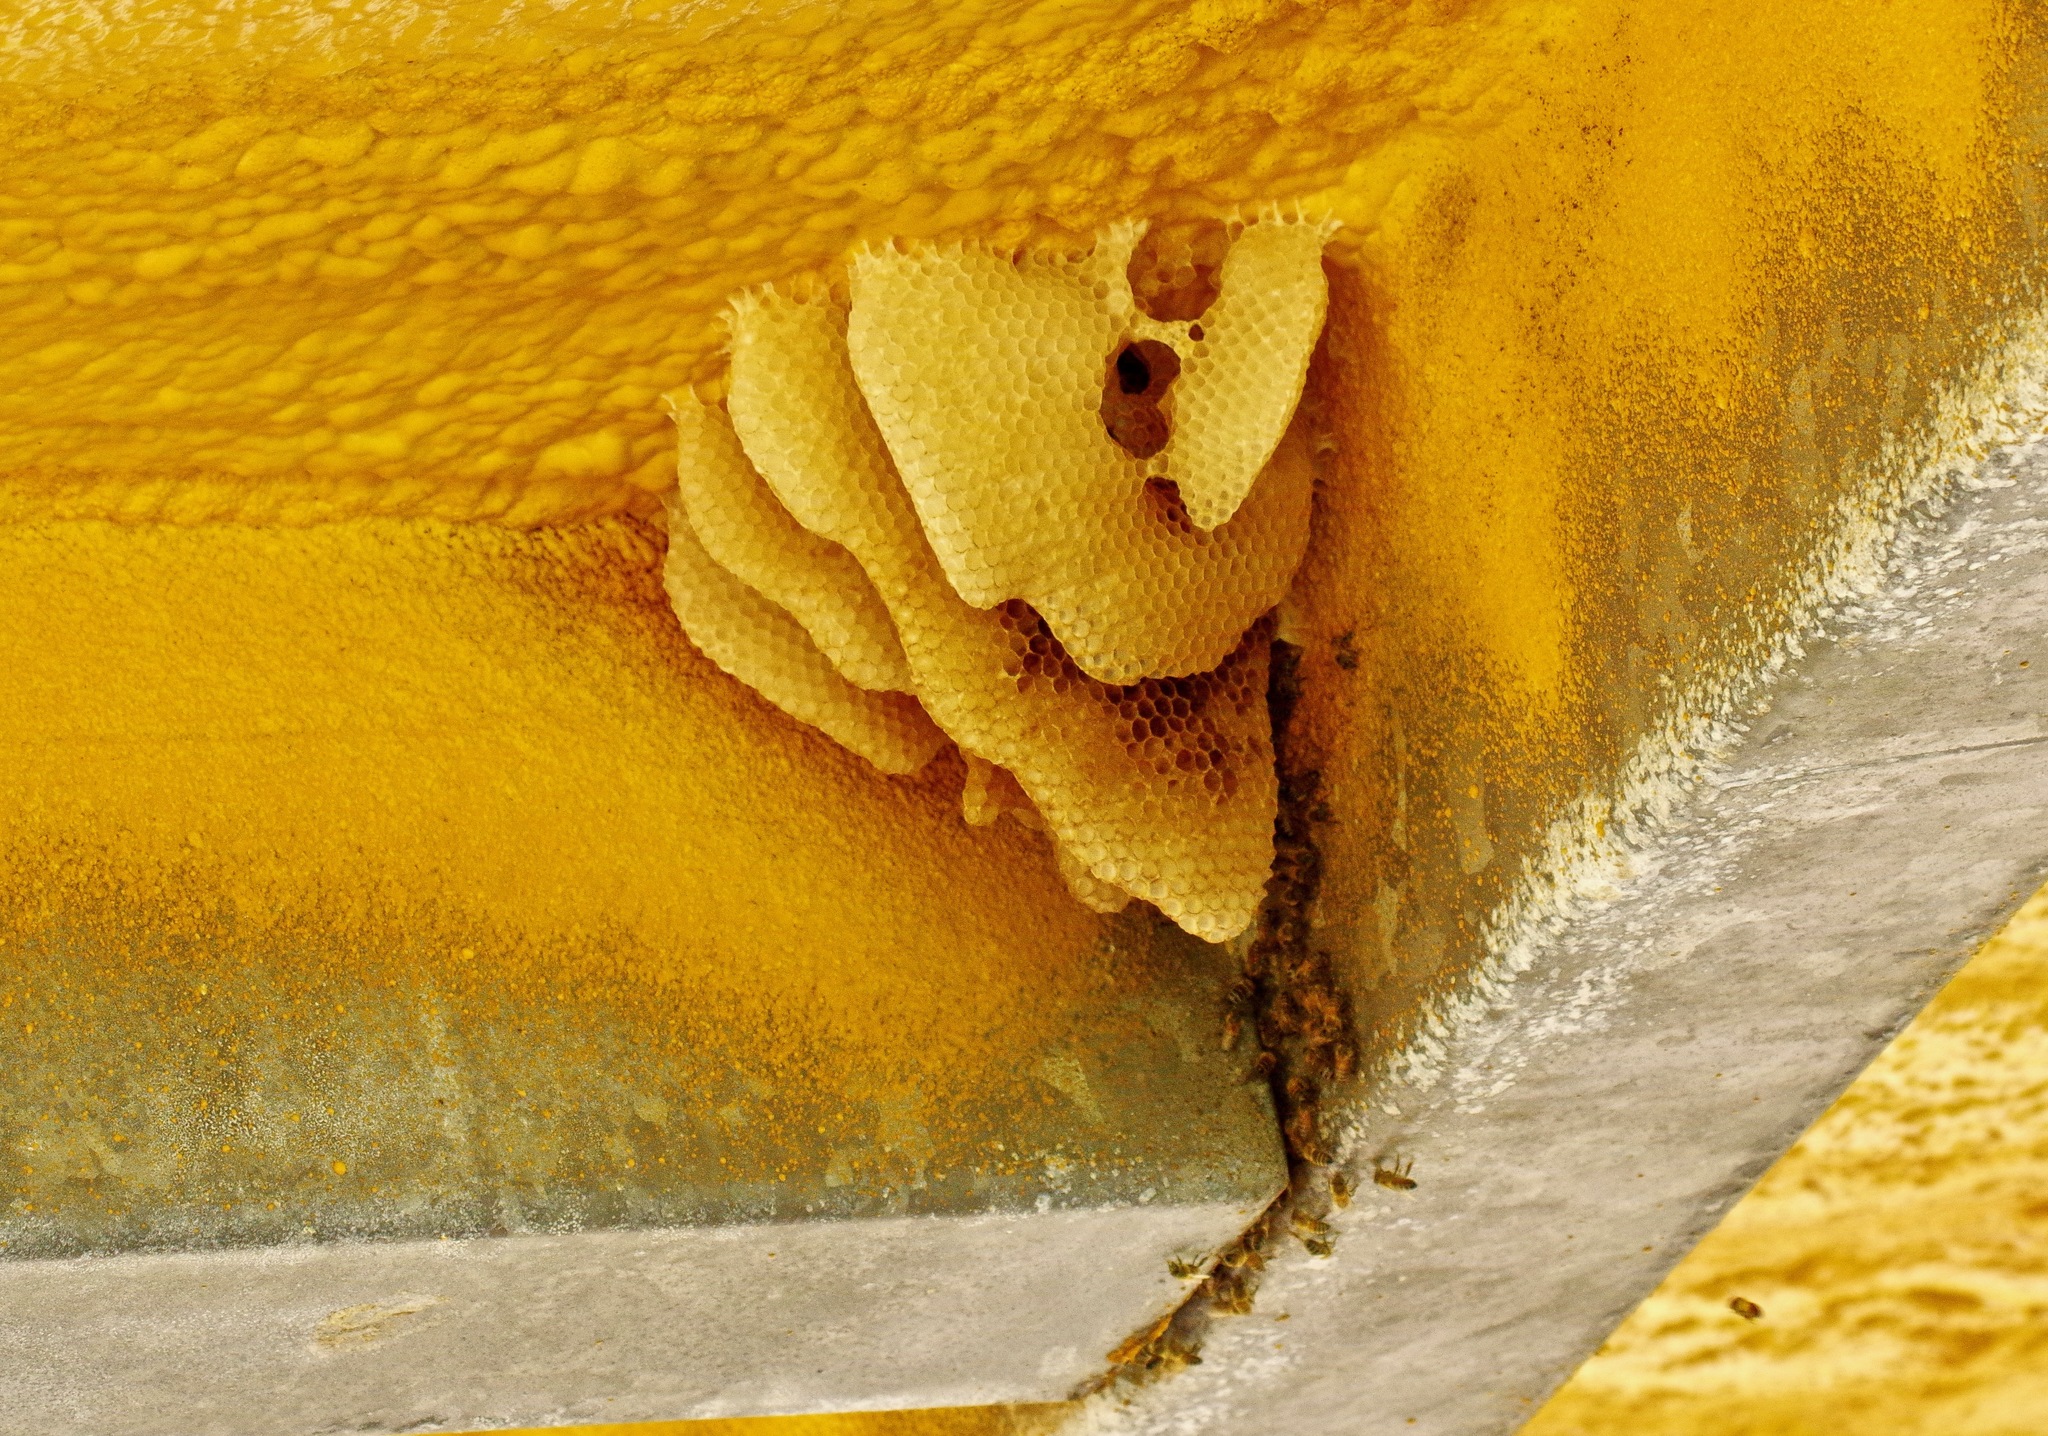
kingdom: Animalia
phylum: Arthropoda
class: Insecta
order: Hymenoptera
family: Apidae
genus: Apis
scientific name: Apis mellifera
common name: Honey bee
